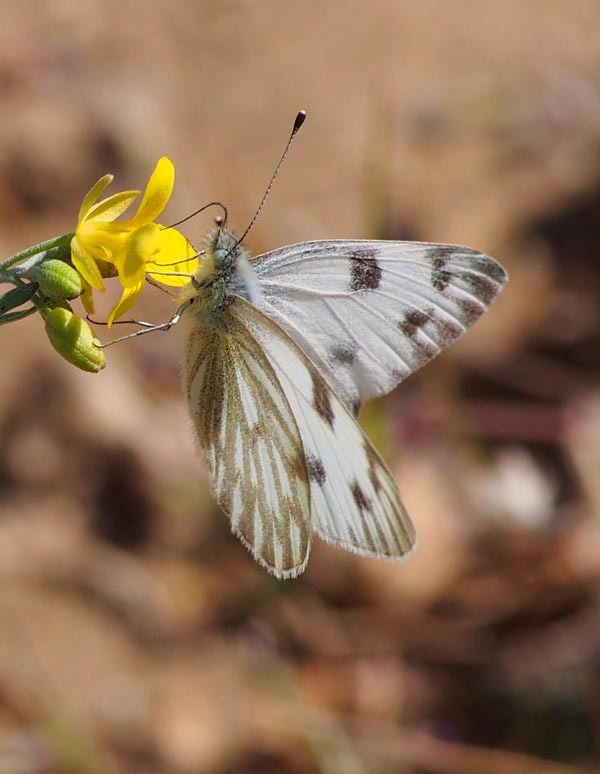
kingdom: Animalia
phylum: Arthropoda
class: Insecta
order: Lepidoptera
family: Pieridae
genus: Pontia
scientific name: Pontia protodice
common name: Checkered white
